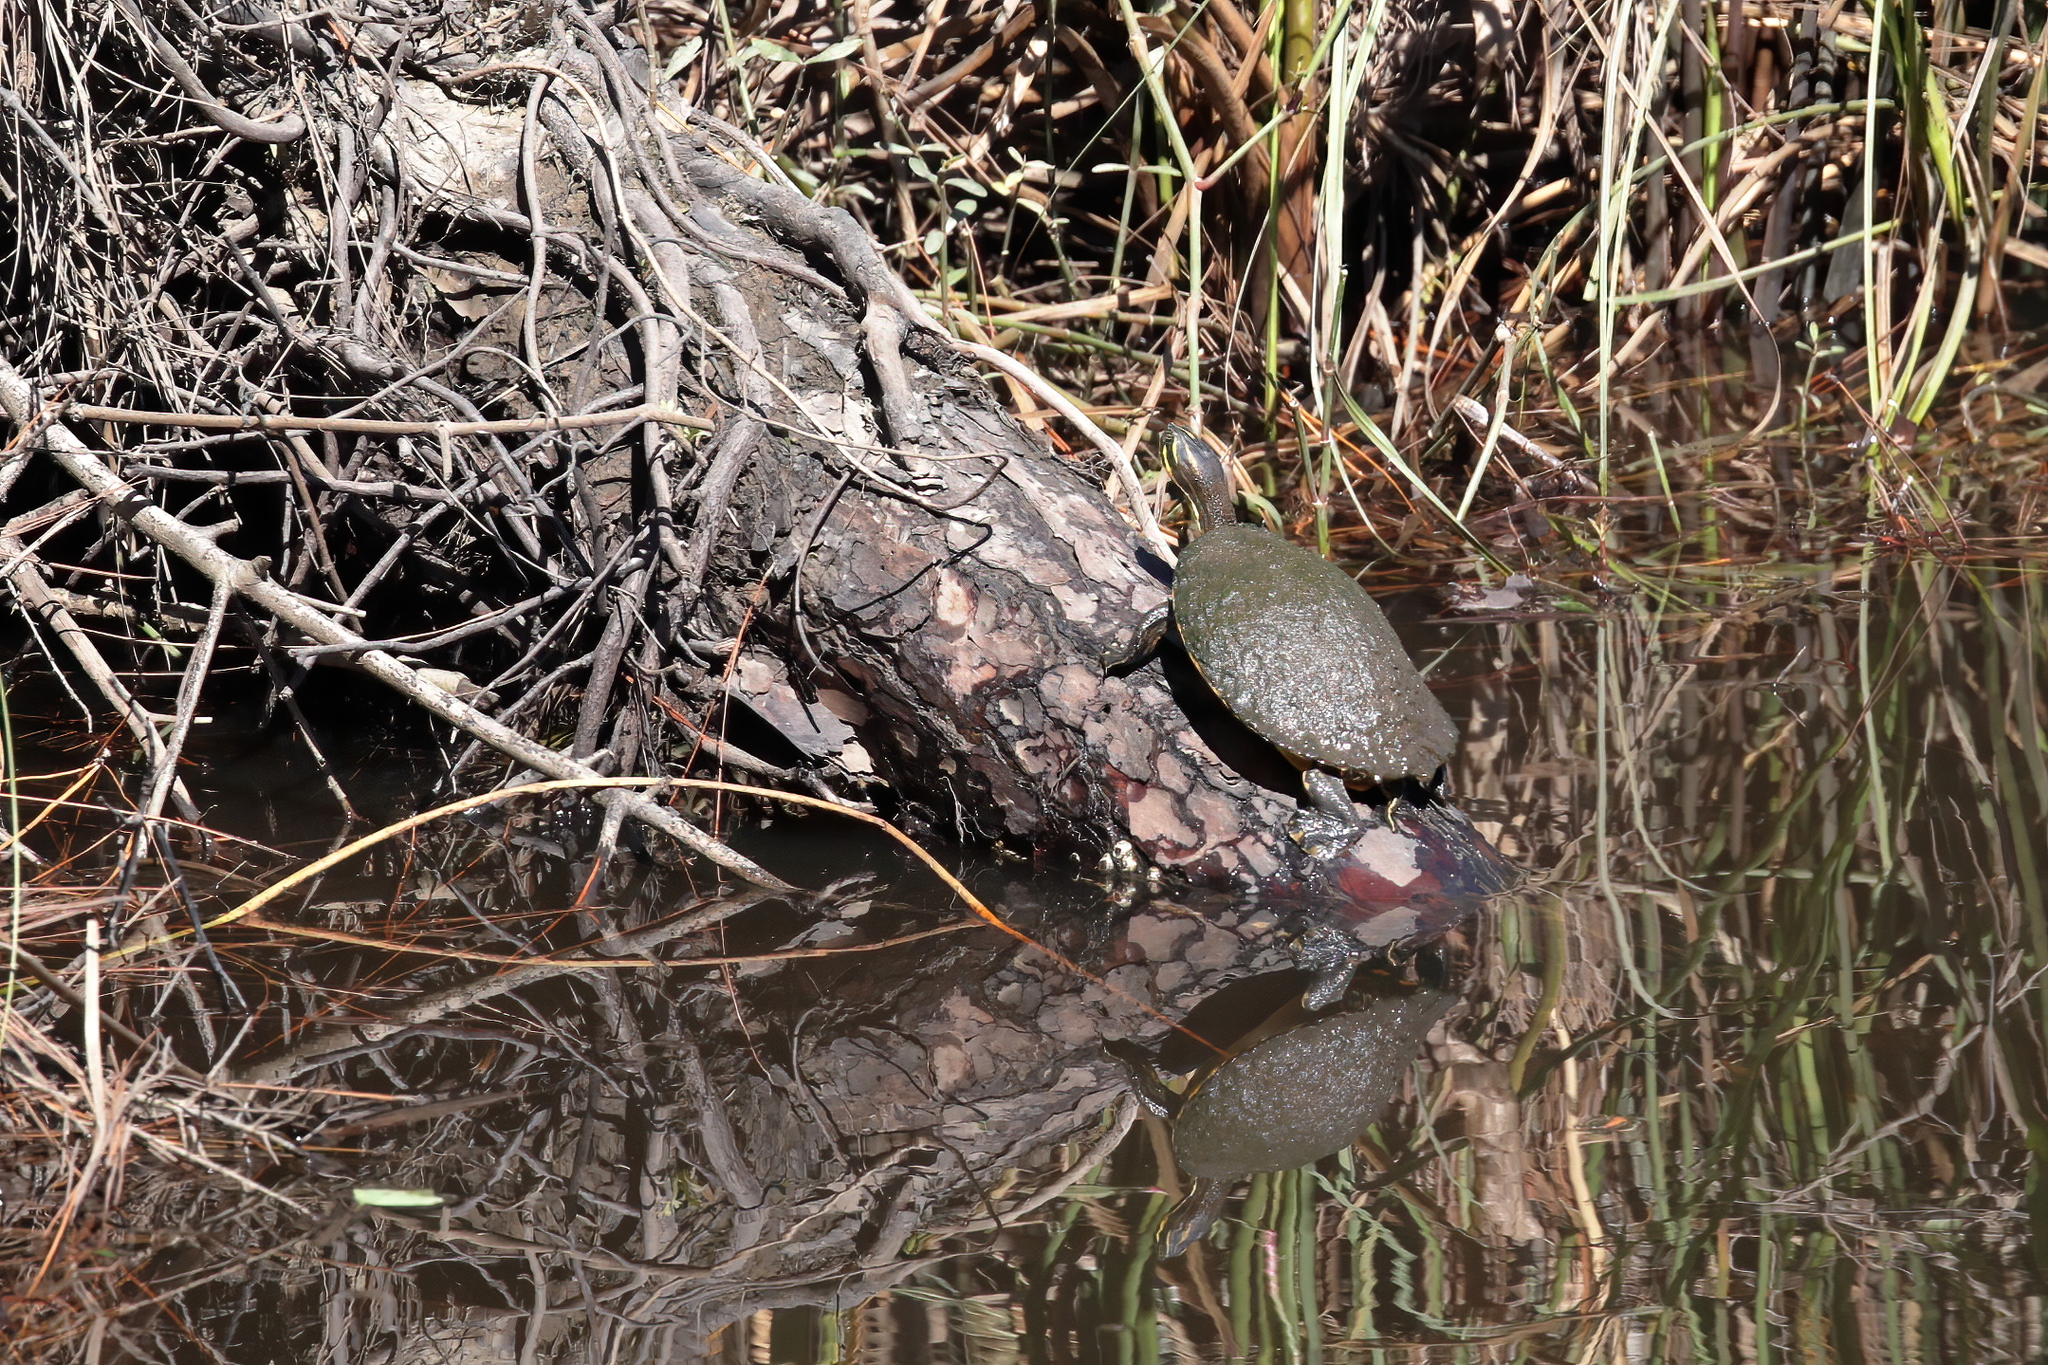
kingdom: Animalia
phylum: Chordata
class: Testudines
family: Emydidae
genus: Pseudemys
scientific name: Pseudemys concinna
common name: Eastern river cooter
